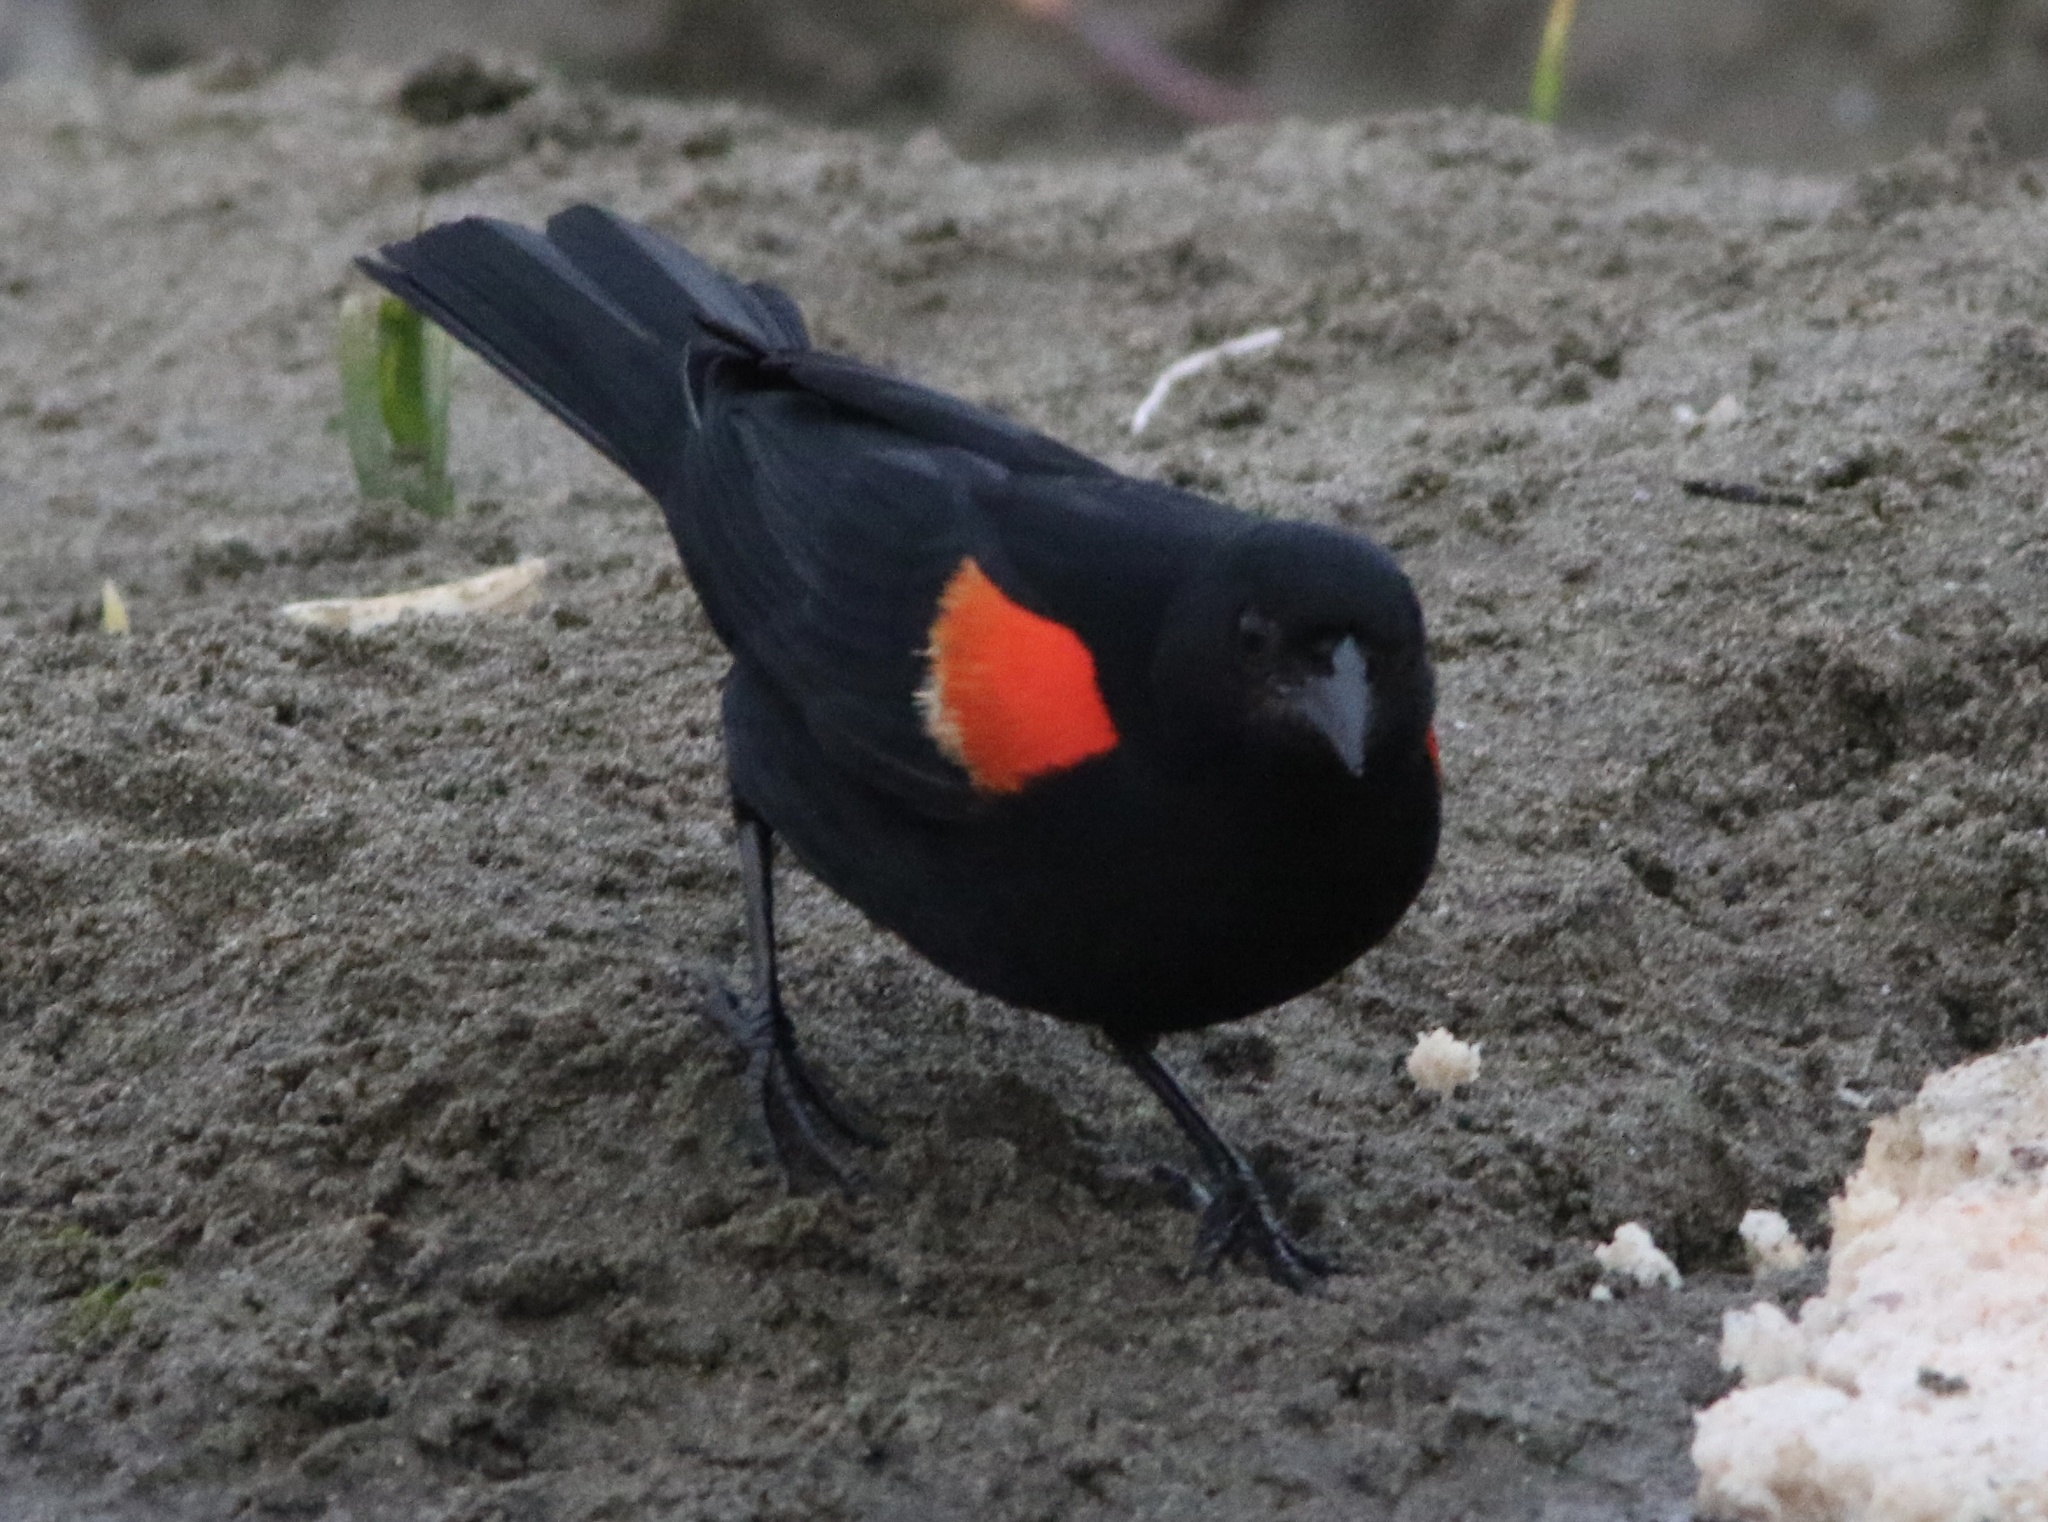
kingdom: Animalia
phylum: Chordata
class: Aves
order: Passeriformes
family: Icteridae
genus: Agelaius
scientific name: Agelaius phoeniceus
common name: Red-winged blackbird
